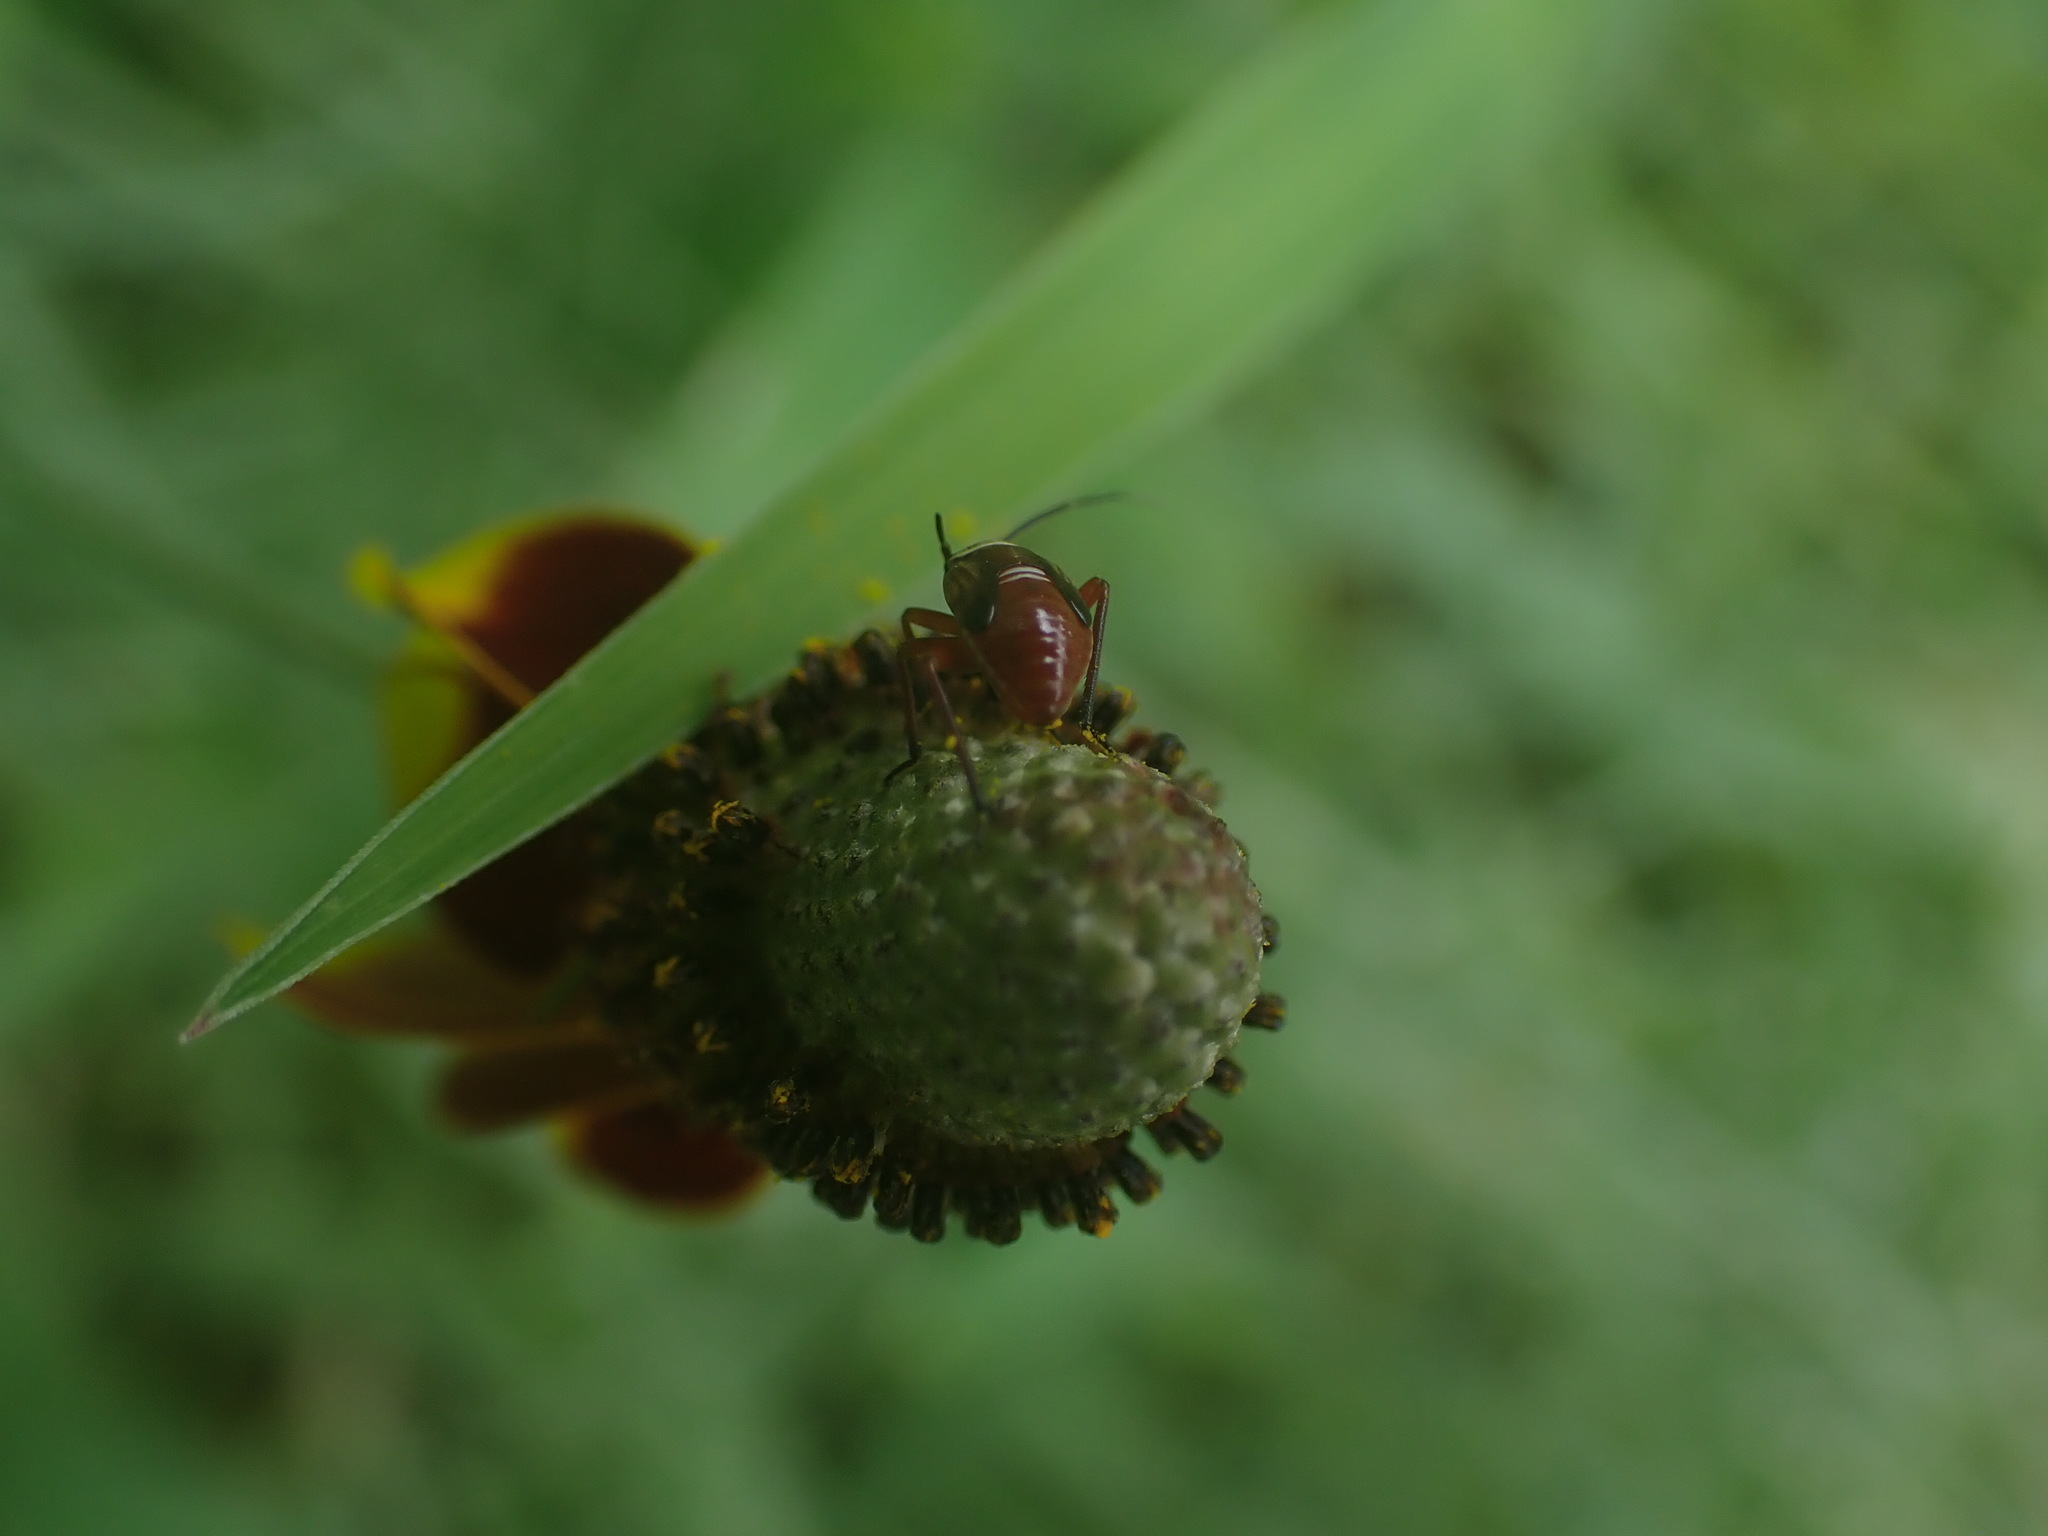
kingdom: Animalia
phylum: Arthropoda
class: Insecta
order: Hemiptera
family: Miridae
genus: Calocoris
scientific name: Calocoris barberi
